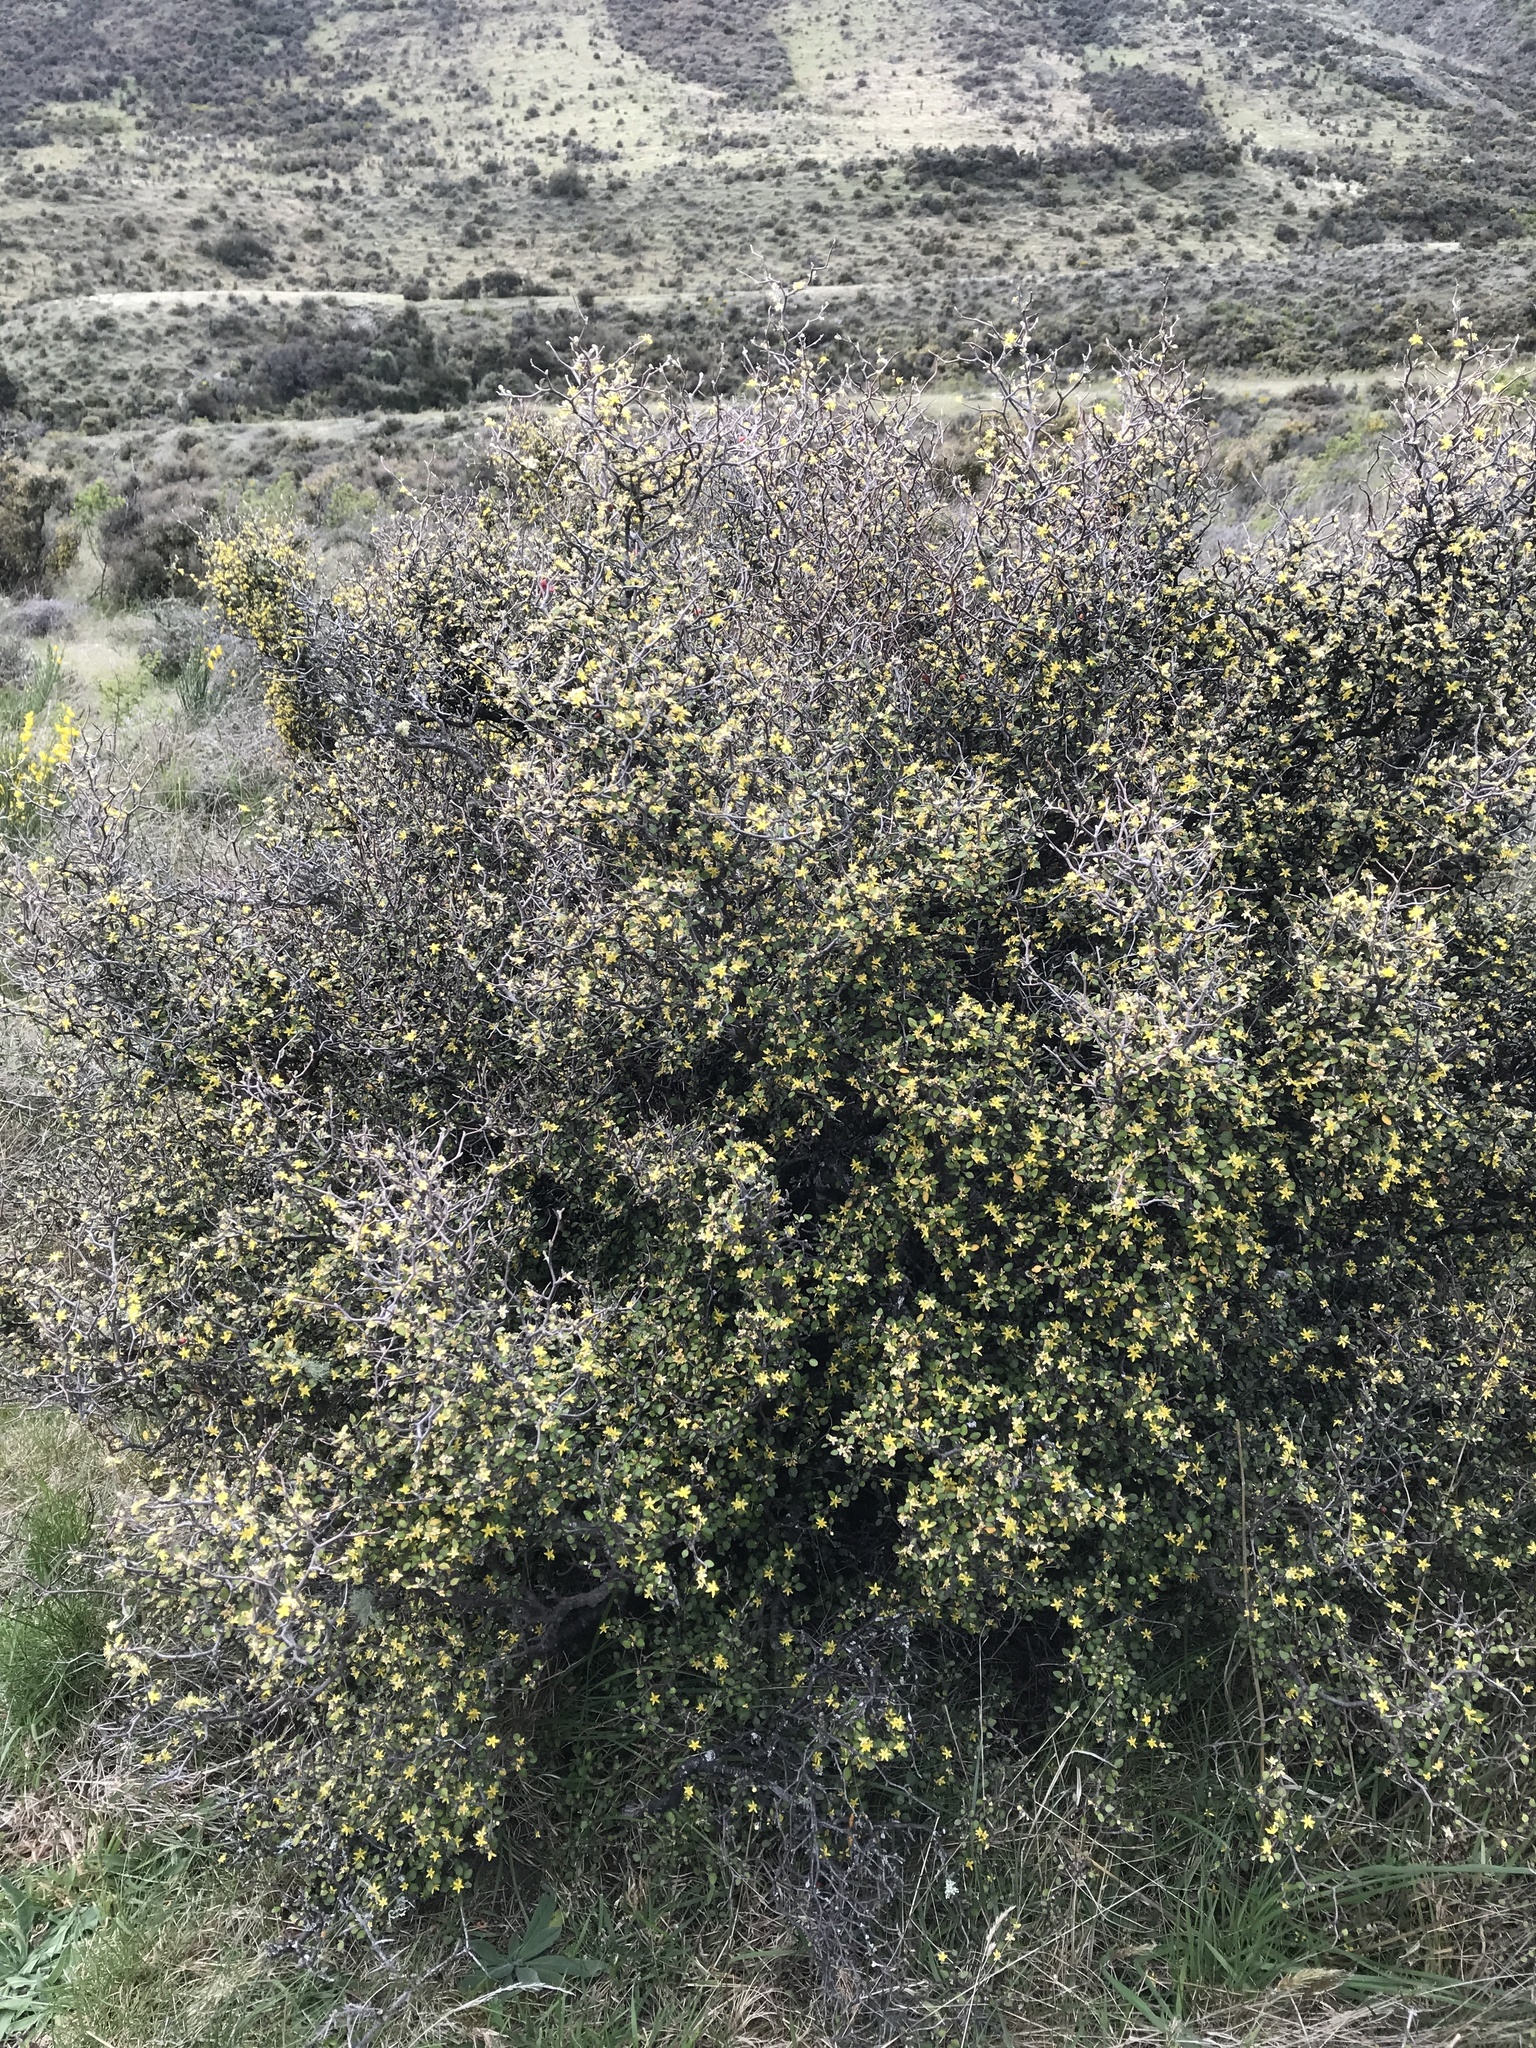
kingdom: Plantae
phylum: Tracheophyta
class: Magnoliopsida
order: Asterales
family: Argophyllaceae
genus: Corokia
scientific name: Corokia cotoneaster
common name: Wire nettingbush
